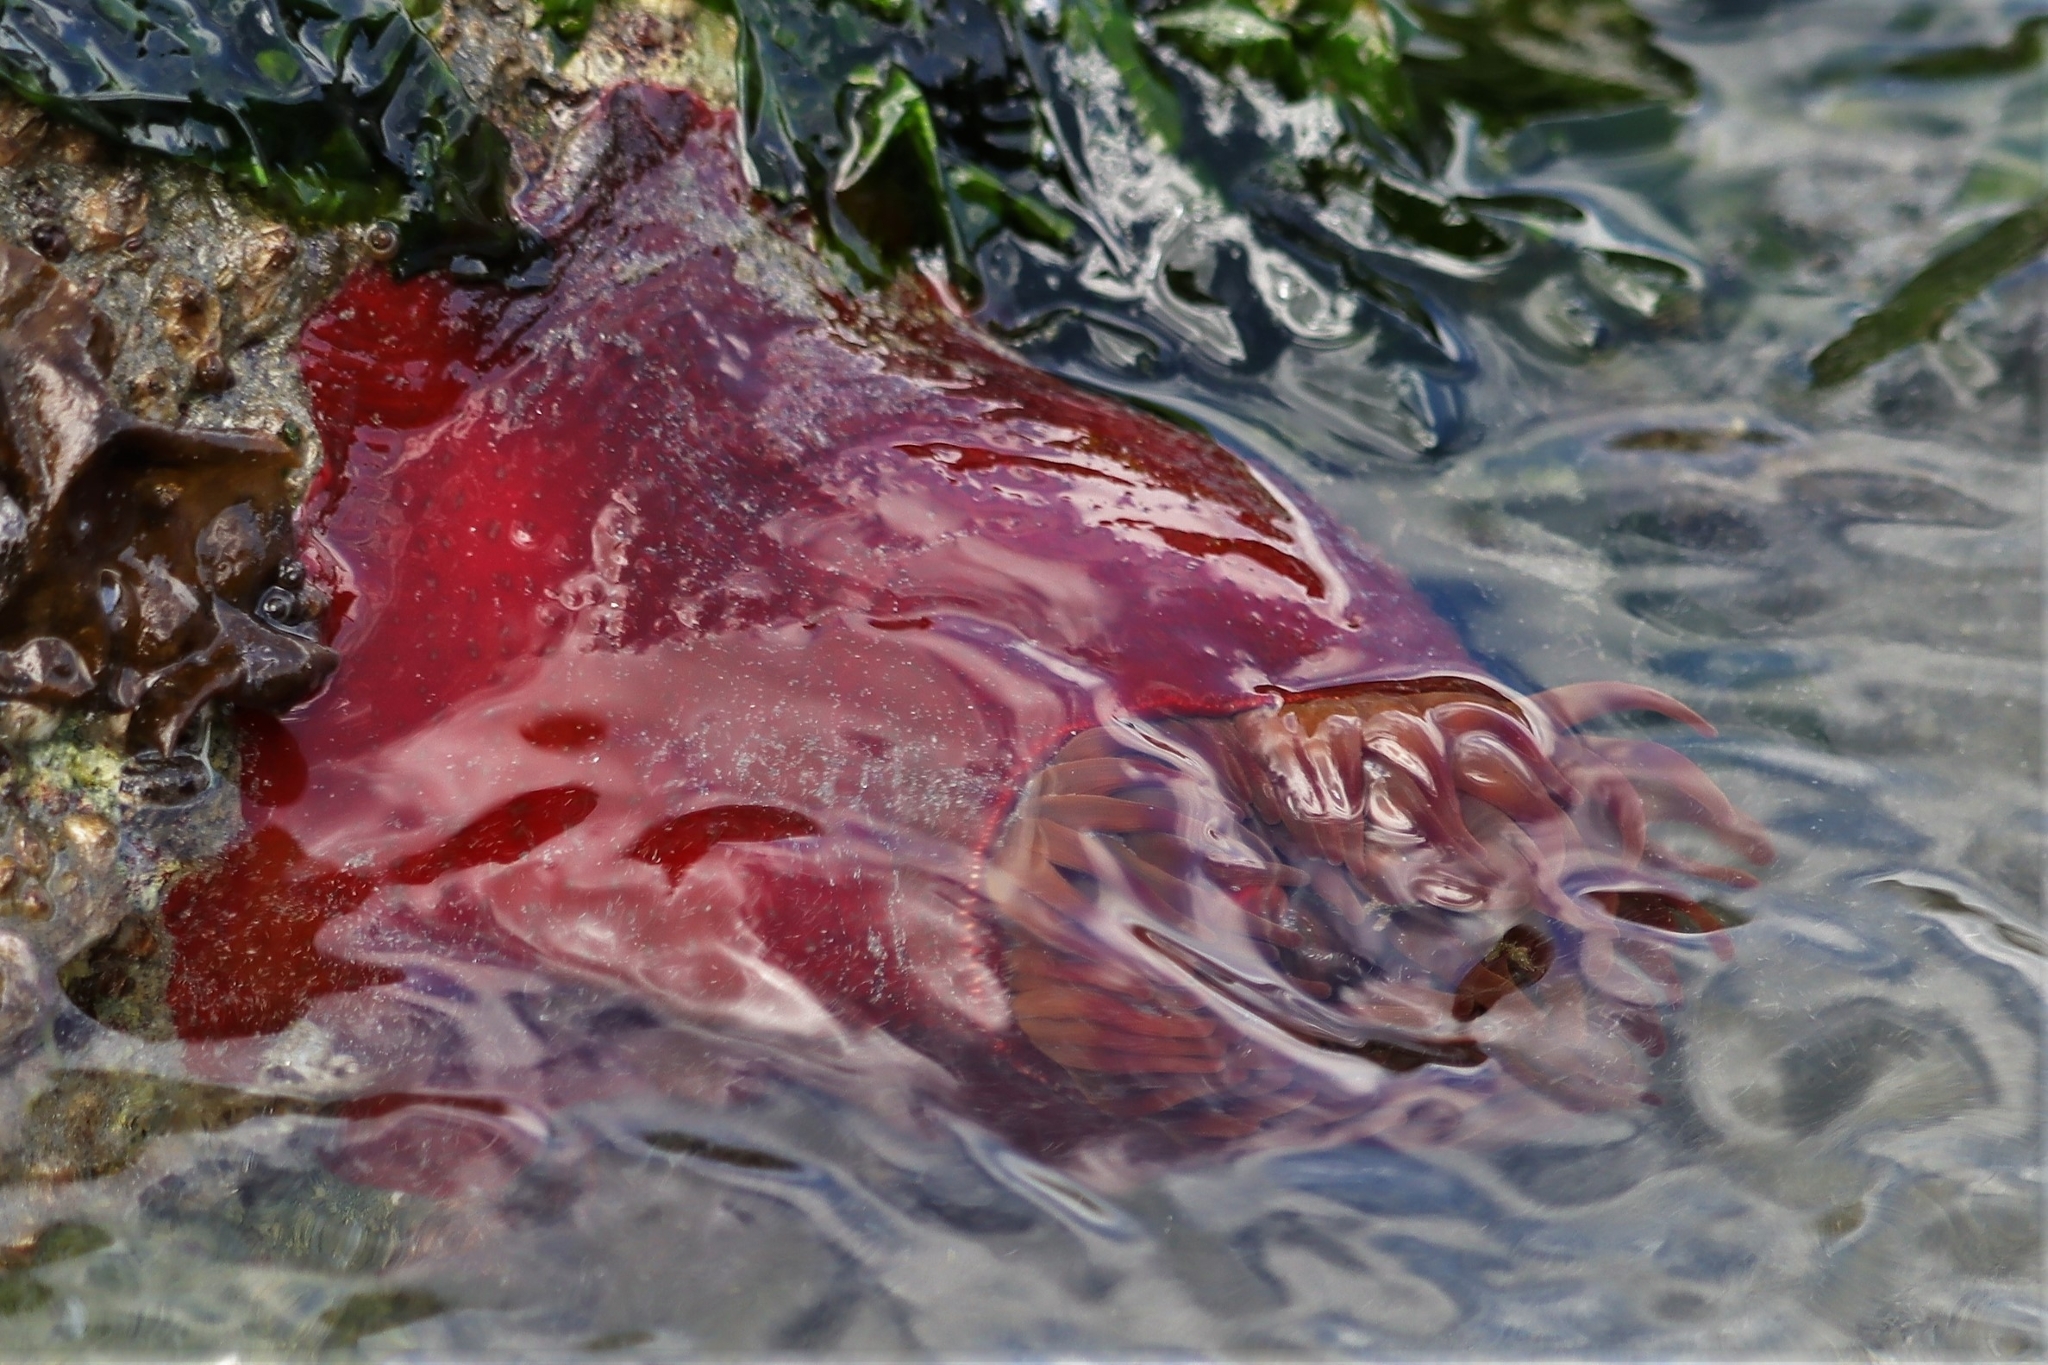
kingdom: Animalia
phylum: Cnidaria
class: Anthozoa
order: Actiniaria
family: Actiniidae
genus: Urticina
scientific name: Urticina grebelnyi
